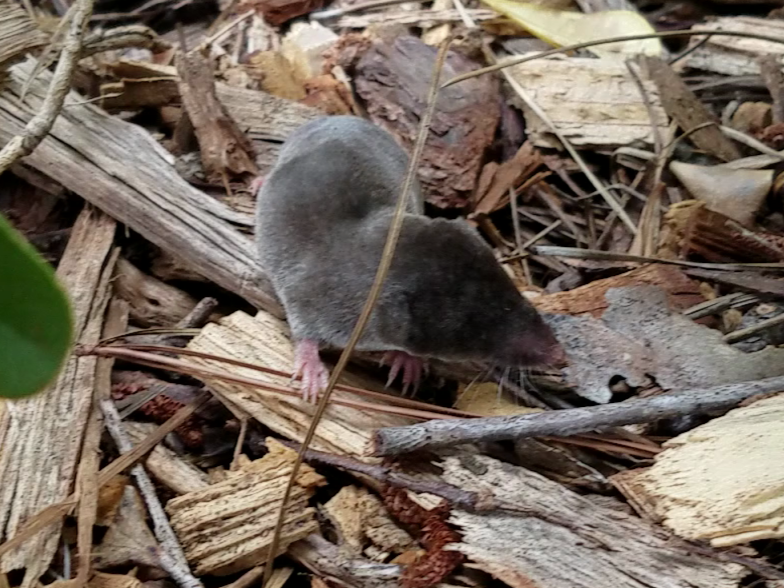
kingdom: Animalia
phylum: Chordata
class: Mammalia
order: Soricomorpha
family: Soricidae
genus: Blarina
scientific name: Blarina brevicauda
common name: Northern short-tailed shrew
